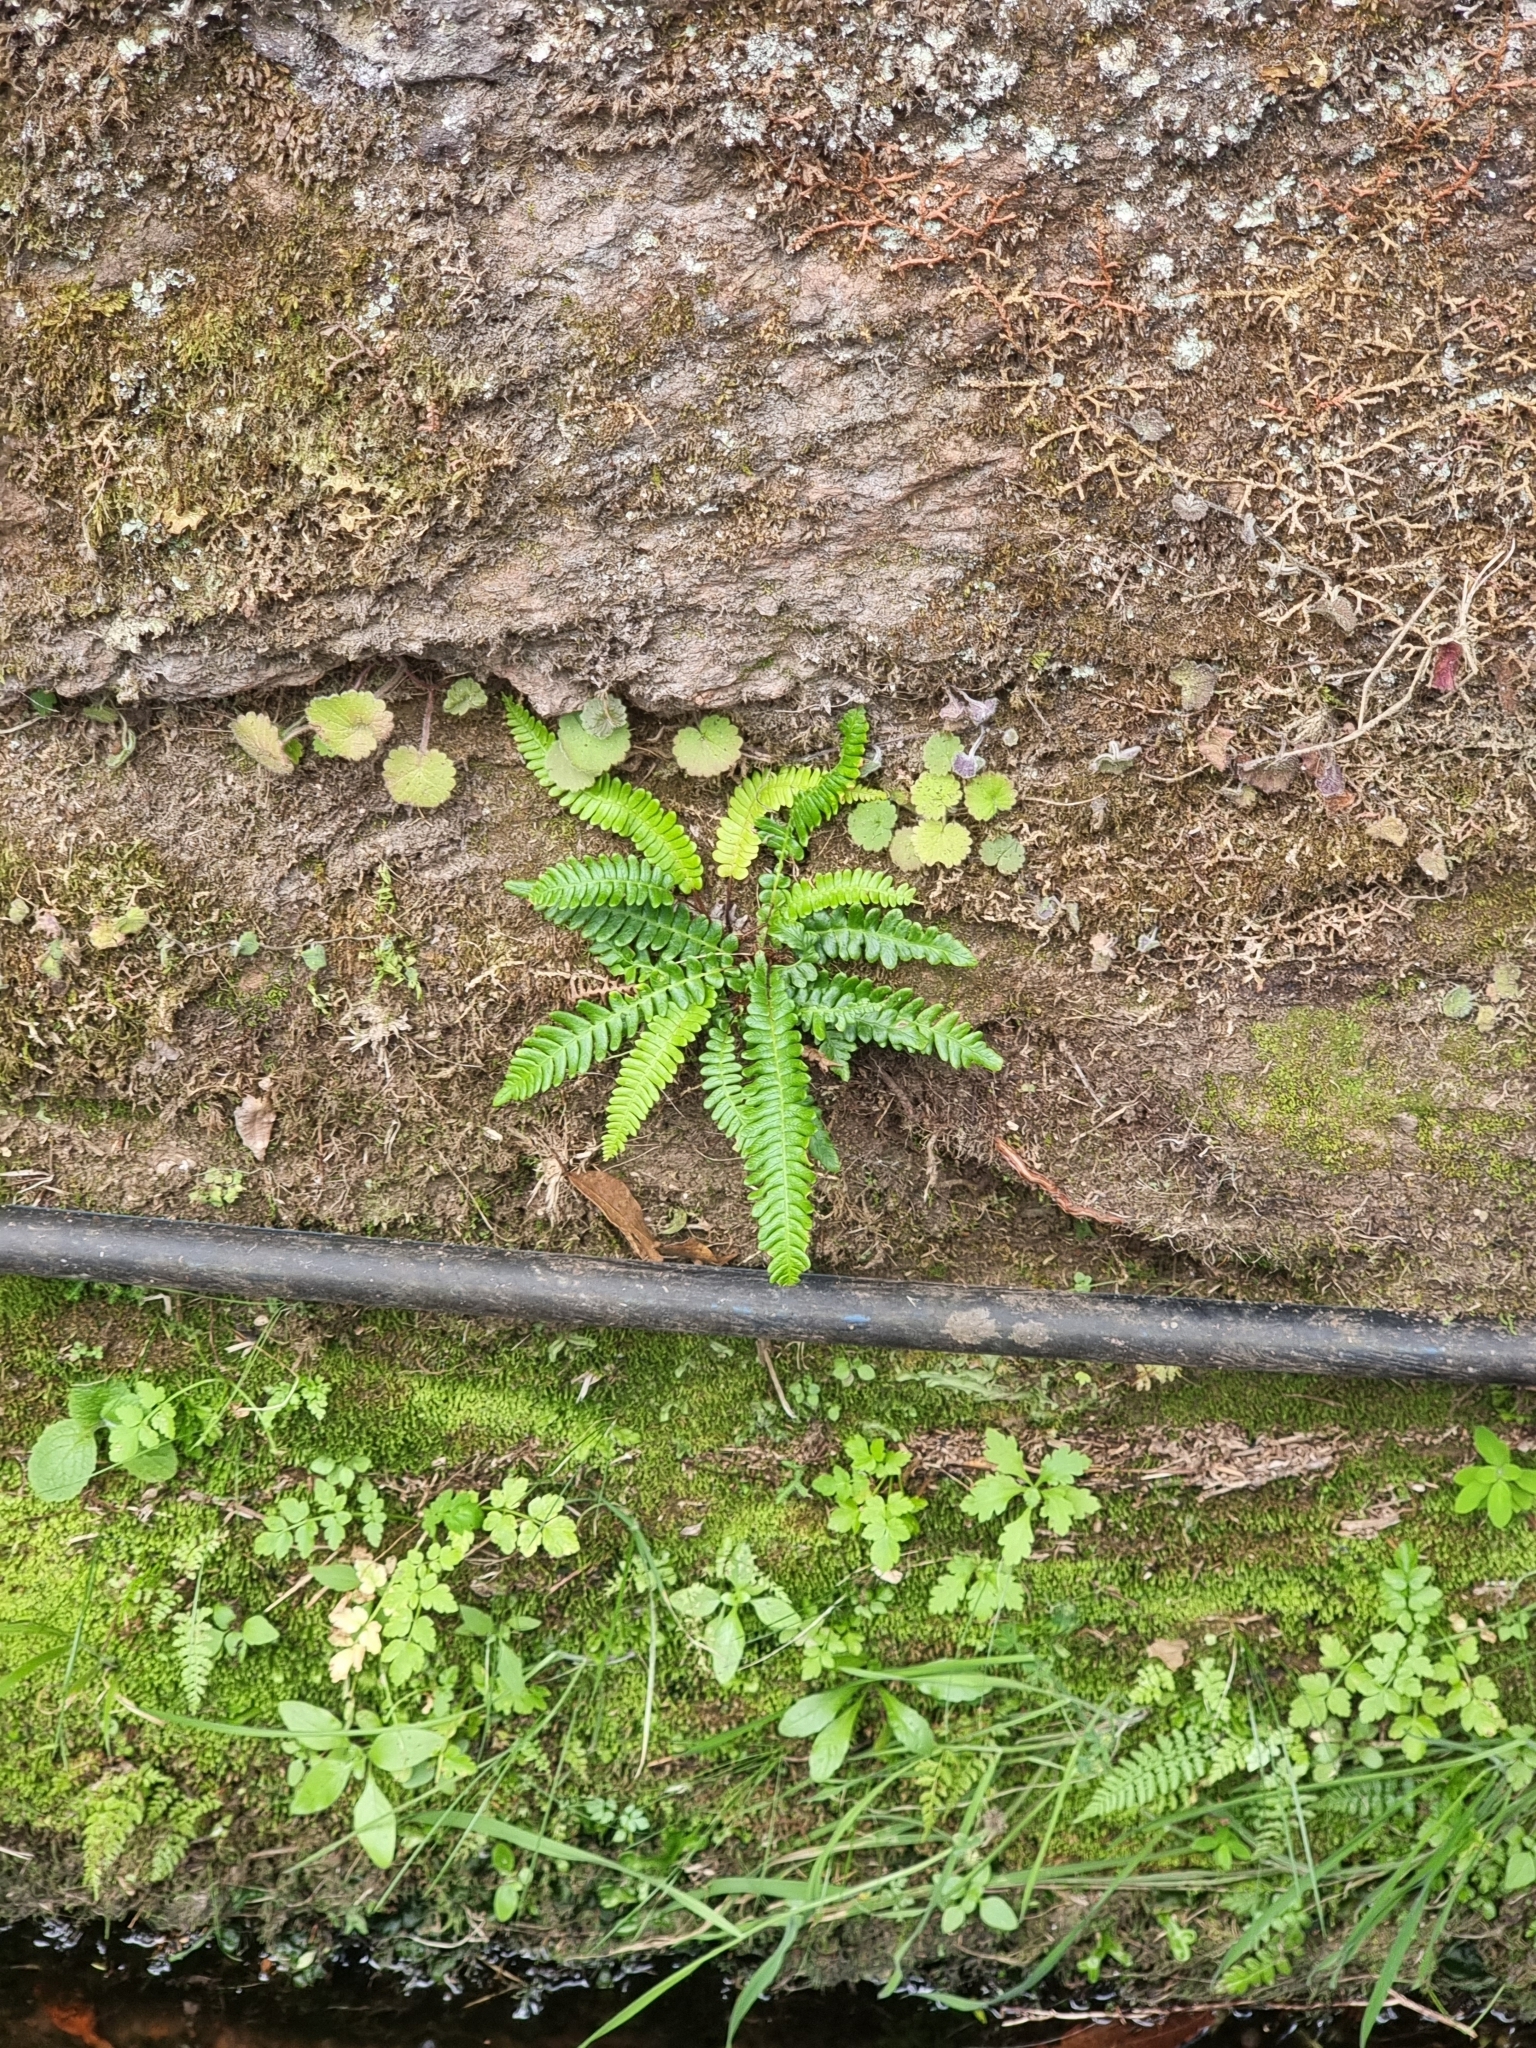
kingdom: Plantae
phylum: Tracheophyta
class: Polypodiopsida
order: Polypodiales
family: Blechnaceae
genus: Struthiopteris
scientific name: Struthiopteris spicant
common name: Deer fern
